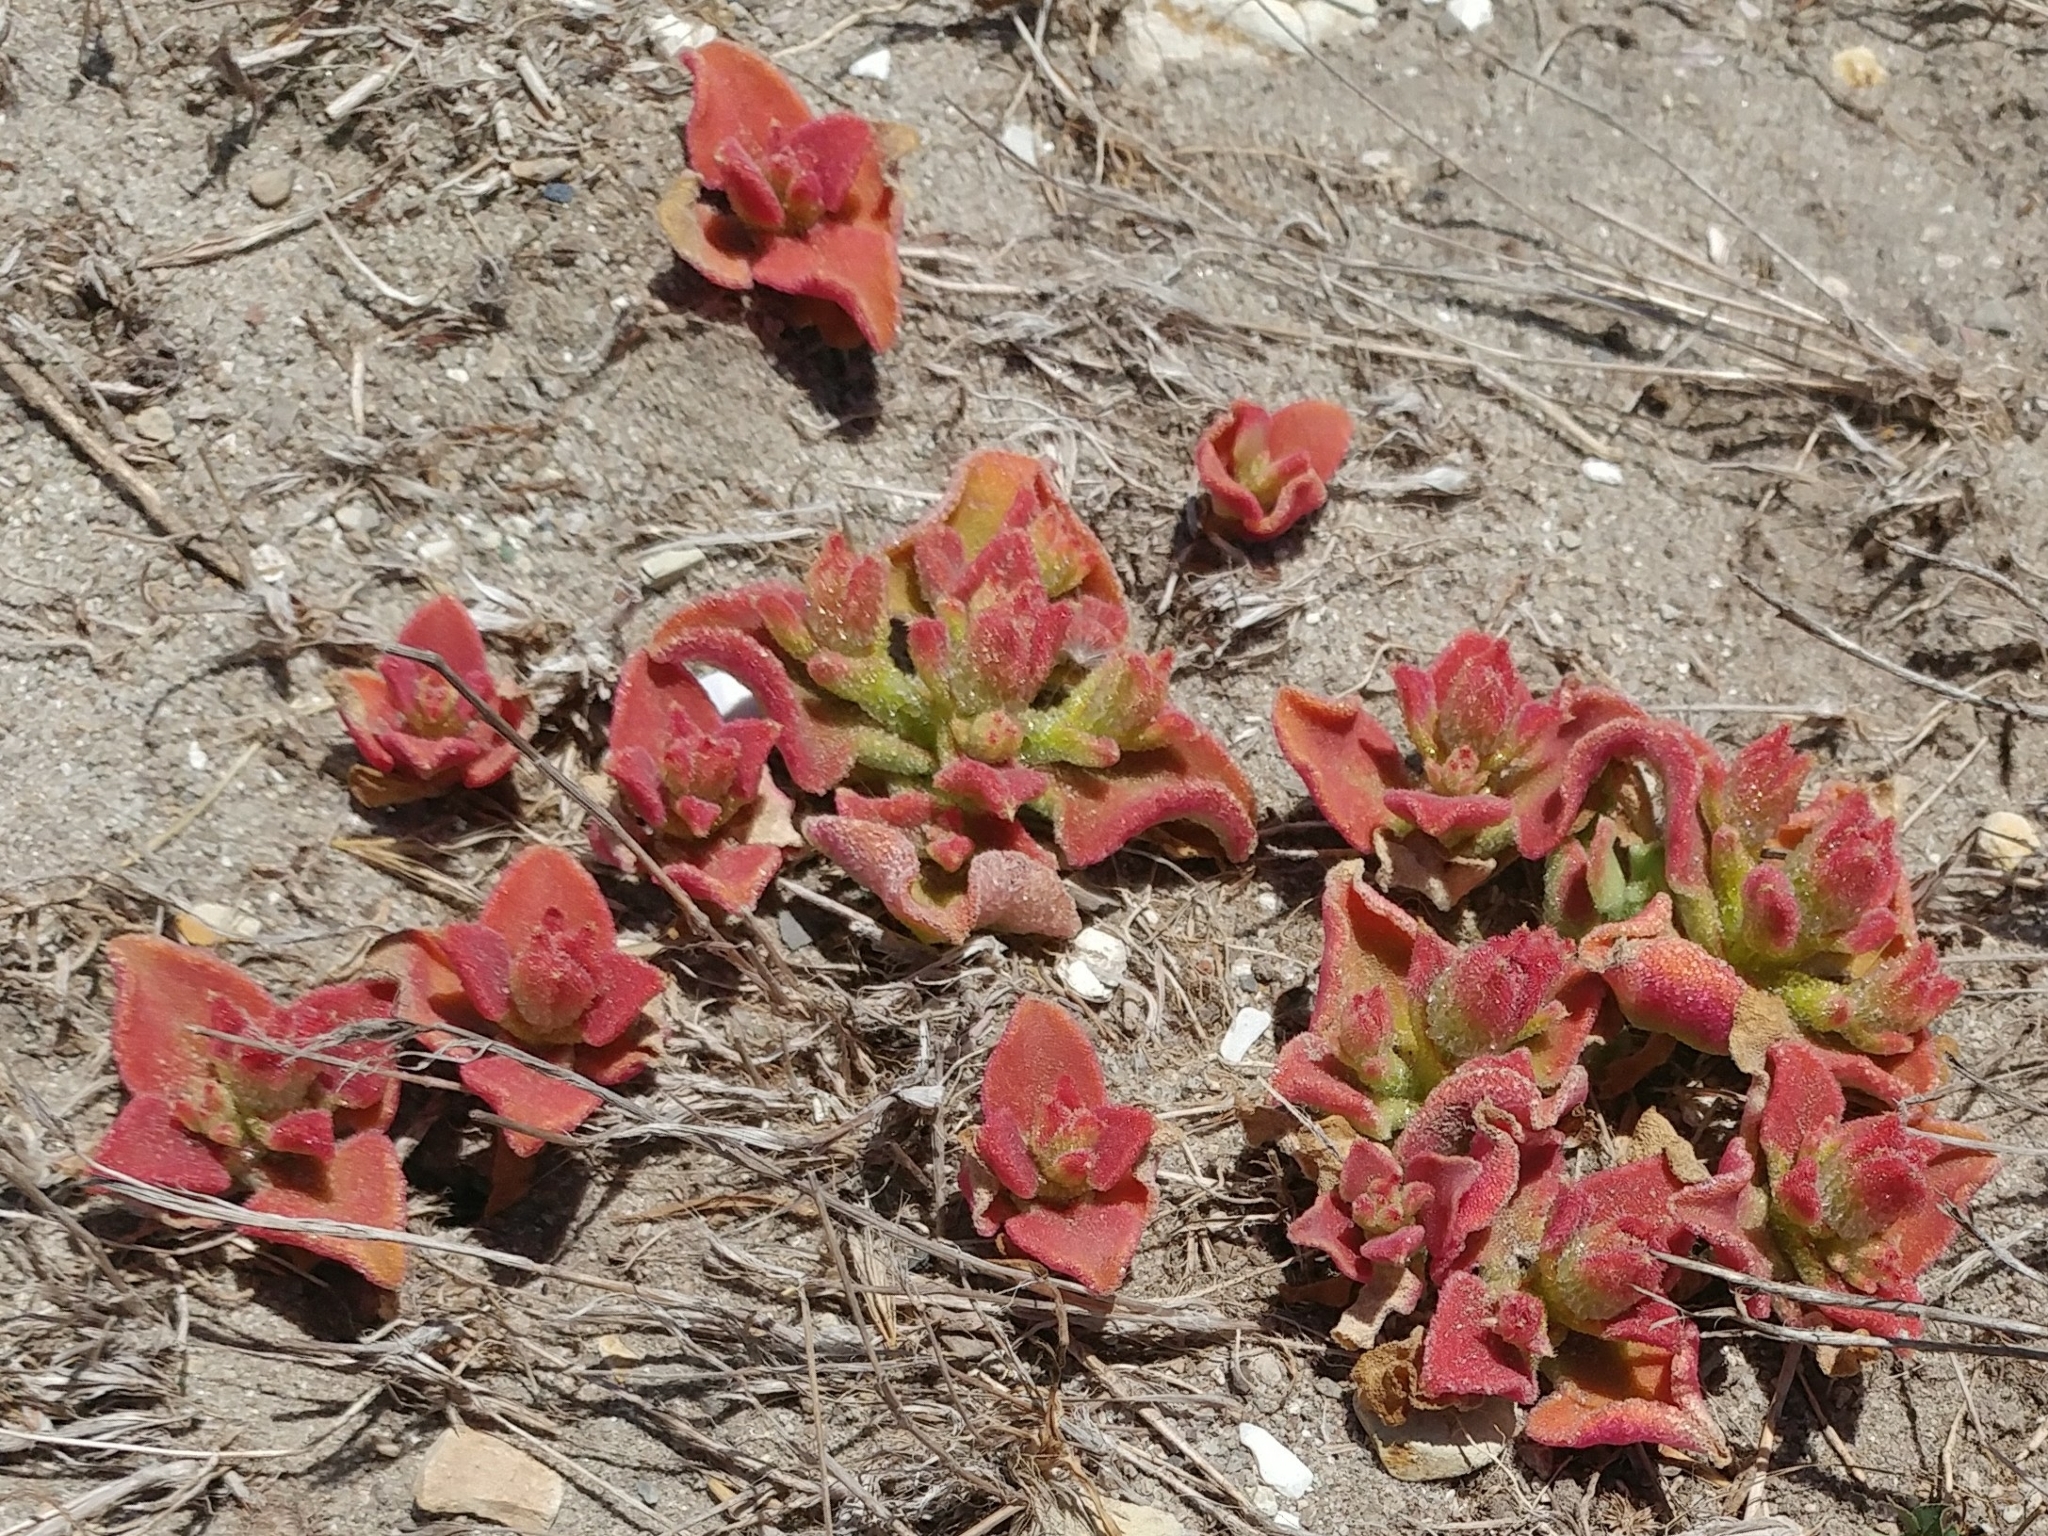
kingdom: Plantae
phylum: Tracheophyta
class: Magnoliopsida
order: Caryophyllales
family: Aizoaceae
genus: Mesembryanthemum
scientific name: Mesembryanthemum crystallinum
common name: Common iceplant
